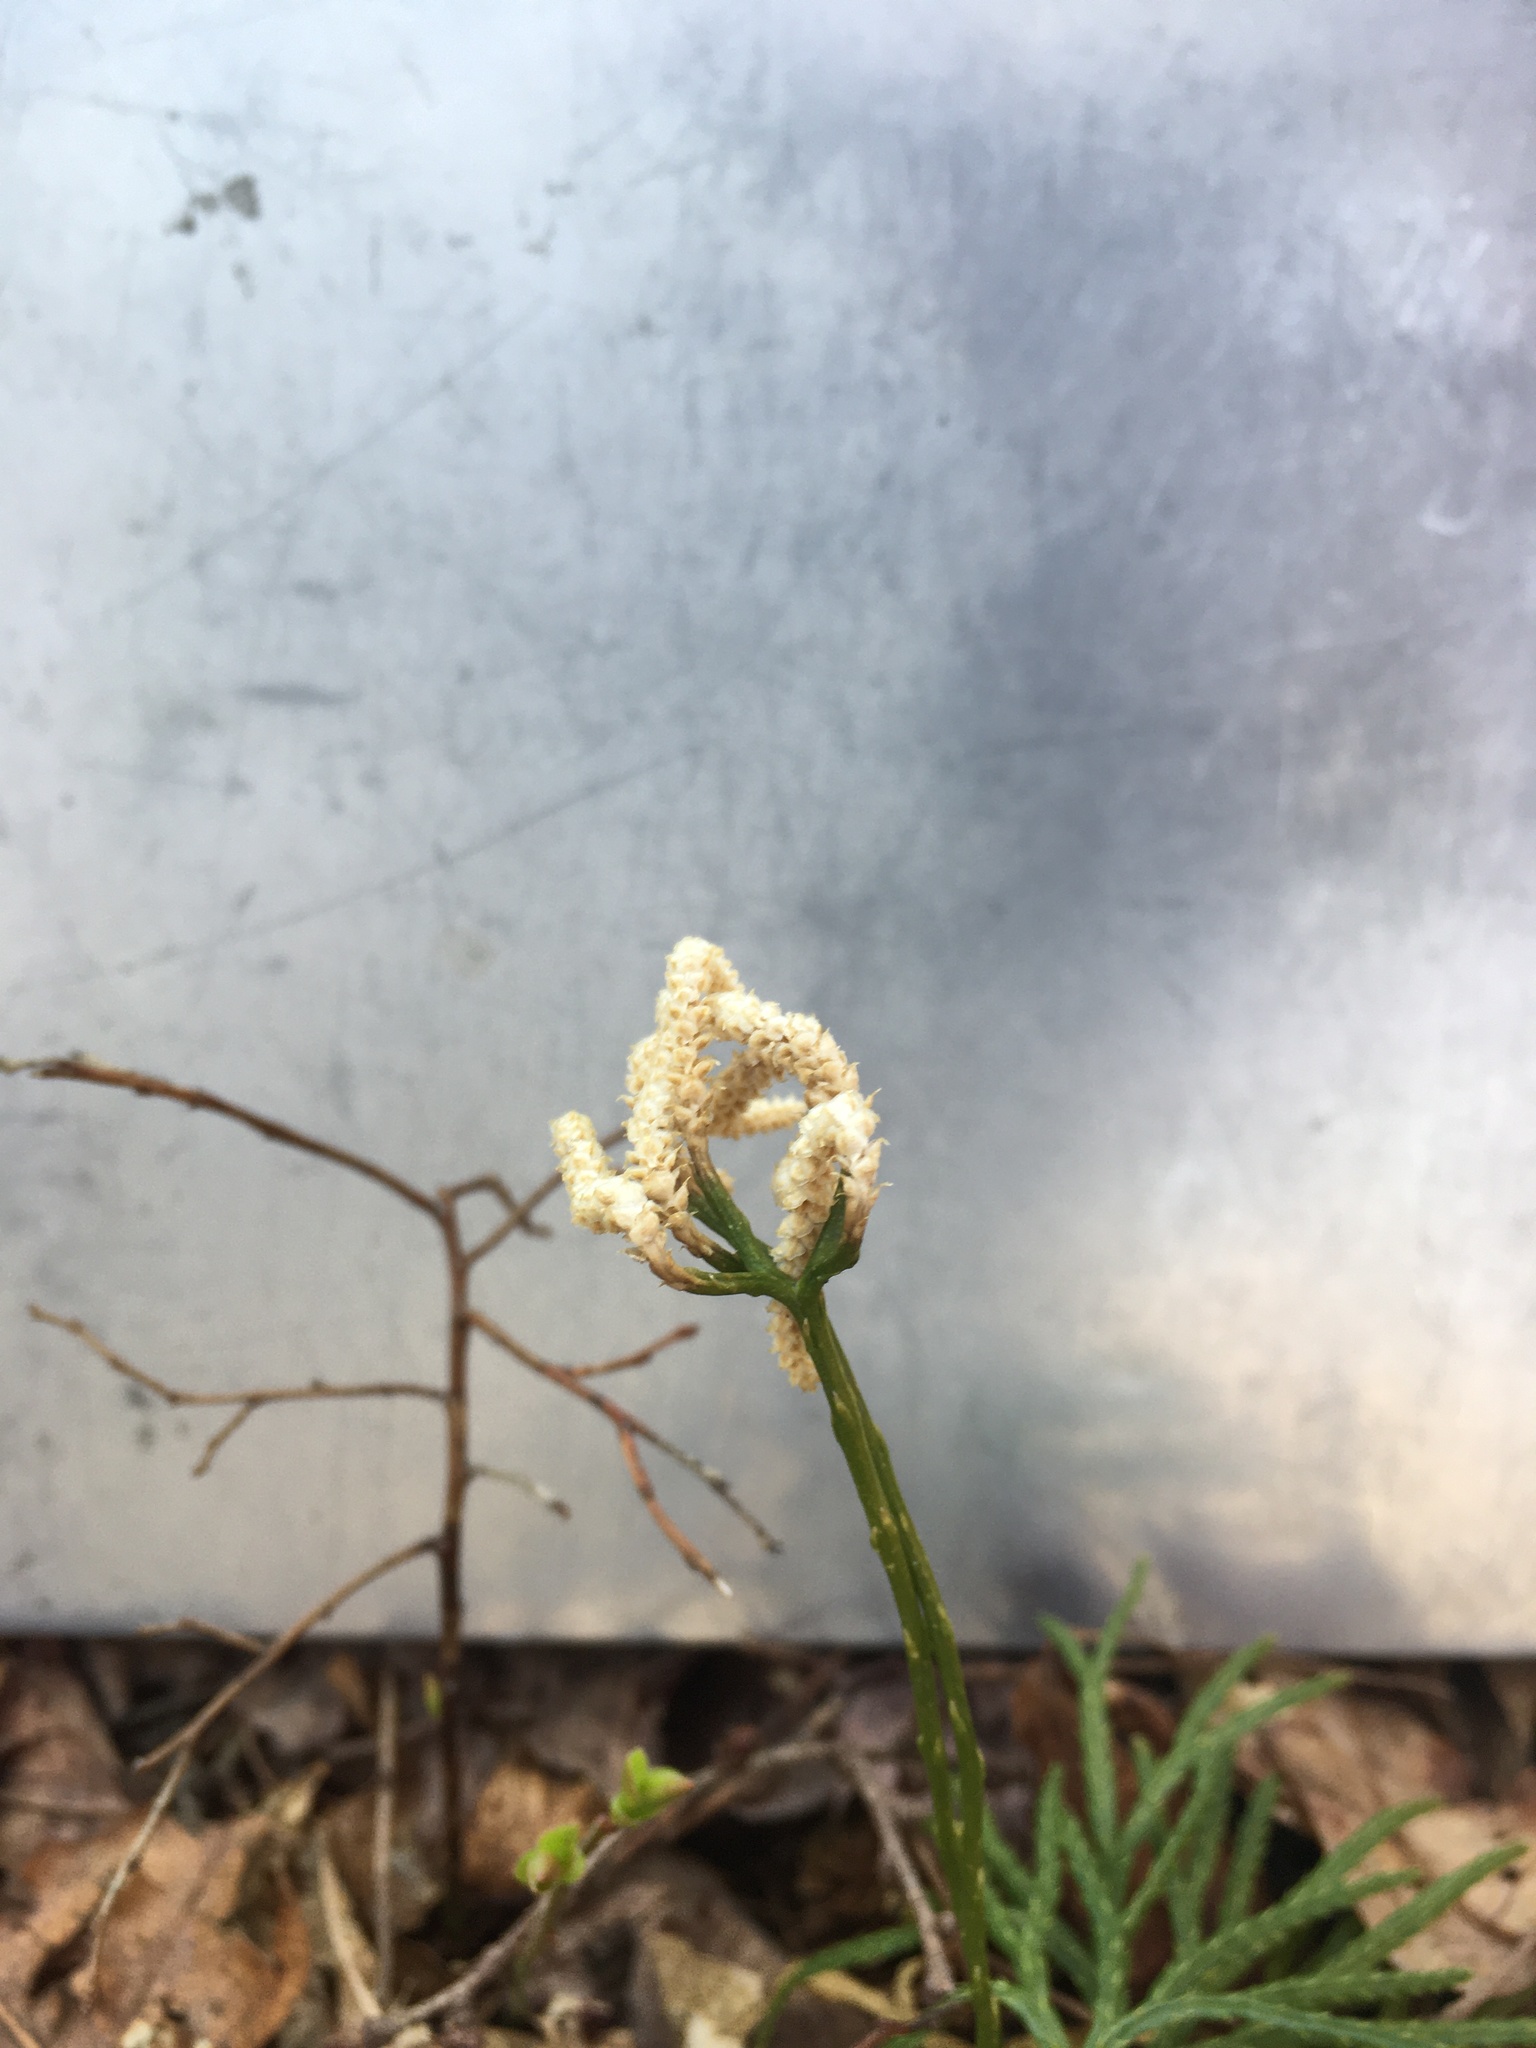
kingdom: Plantae
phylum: Tracheophyta
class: Lycopodiopsida
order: Lycopodiales
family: Lycopodiaceae
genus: Diphasiastrum
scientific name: Diphasiastrum digitatum
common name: Southern running-pine
